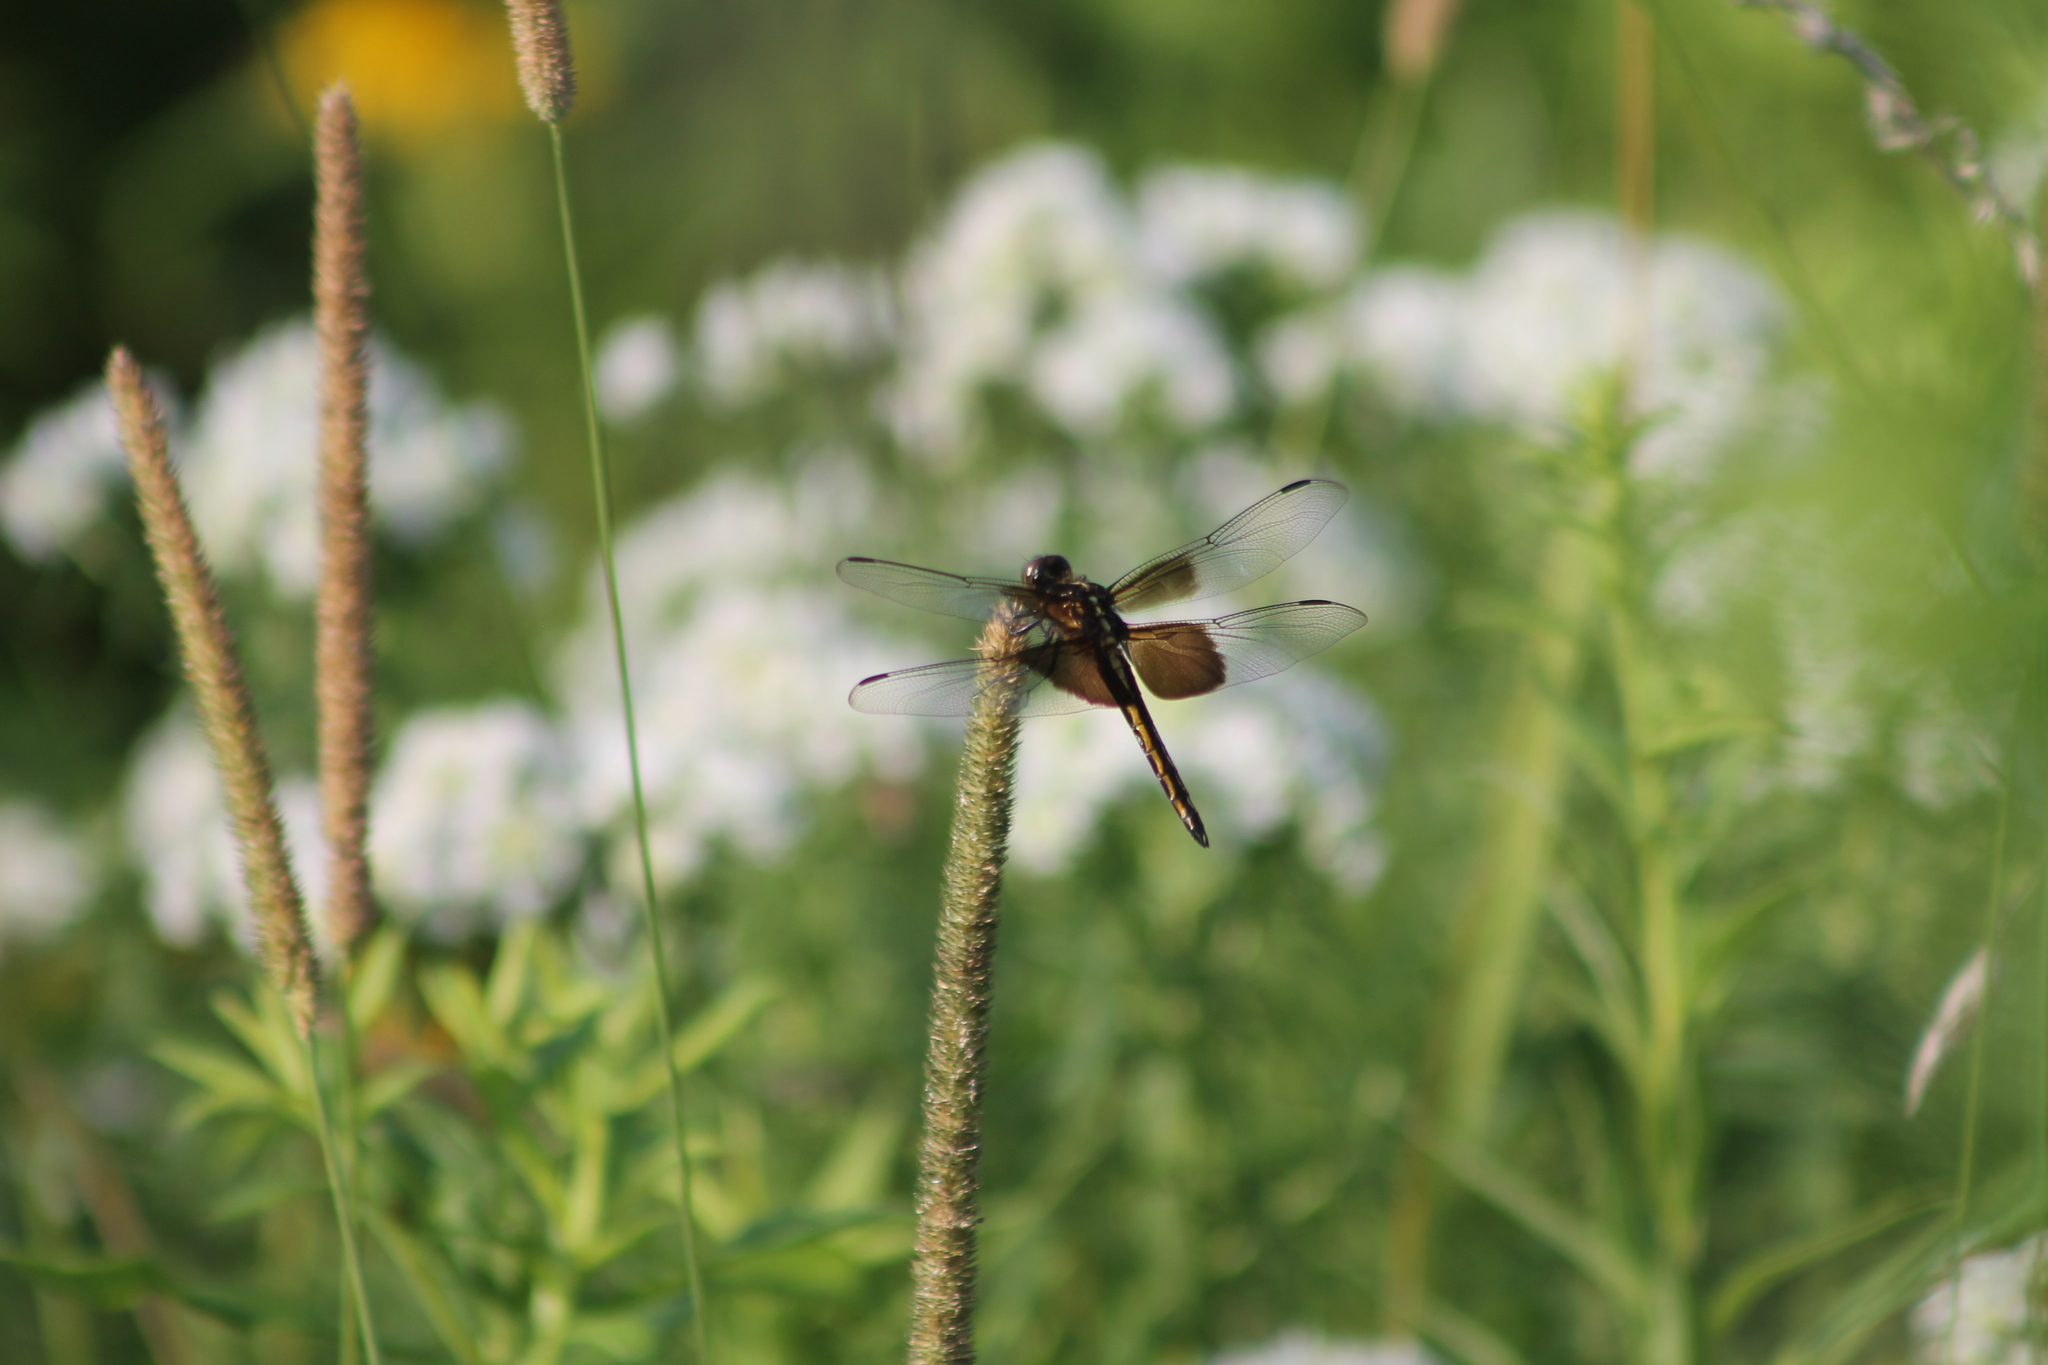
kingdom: Animalia
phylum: Arthropoda
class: Insecta
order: Odonata
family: Libellulidae
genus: Libellula
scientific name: Libellula luctuosa
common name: Widow skimmer
